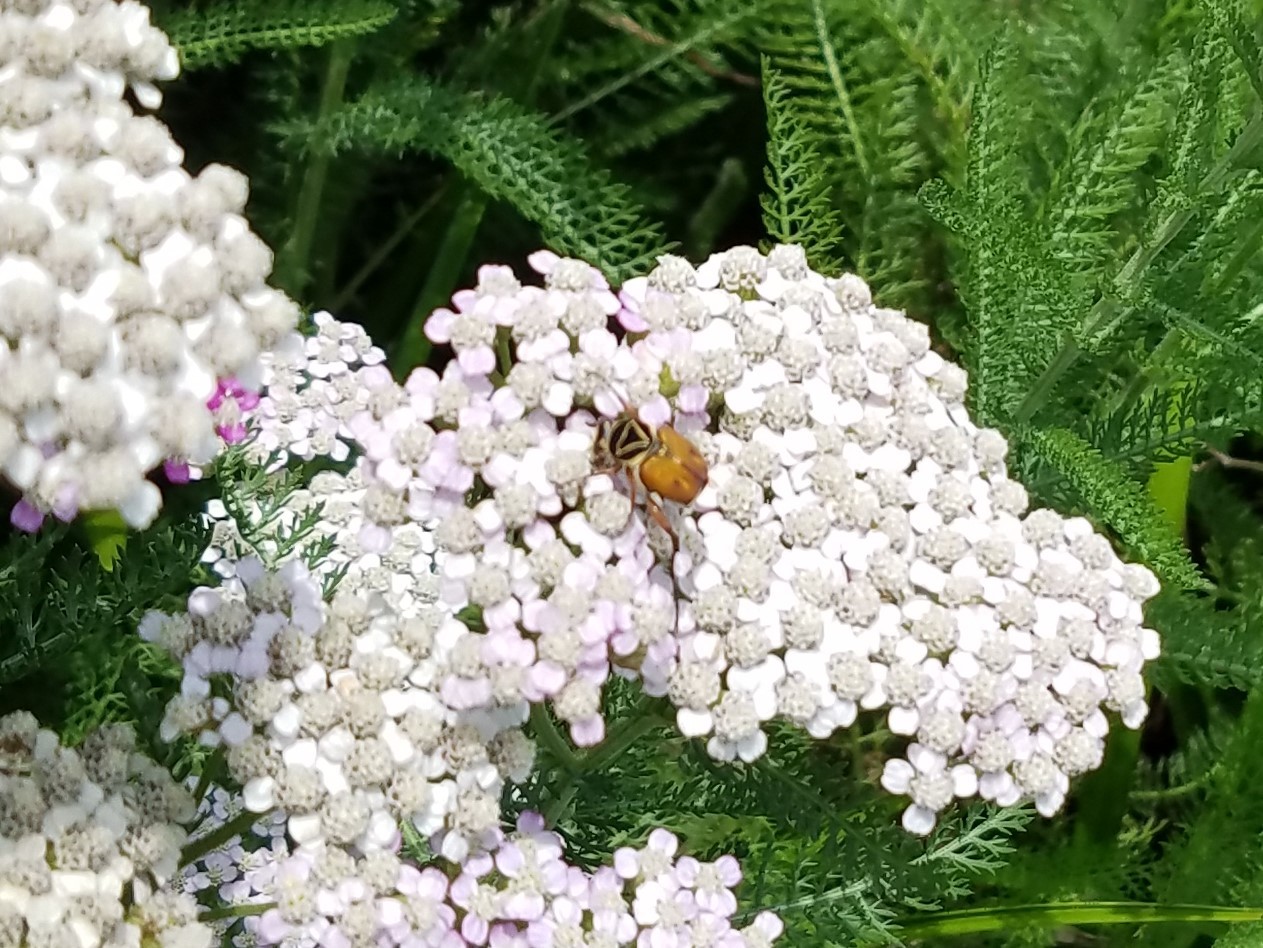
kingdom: Animalia
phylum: Arthropoda
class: Insecta
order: Coleoptera
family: Scarabaeidae
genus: Trigonopeltastes
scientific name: Trigonopeltastes delta
